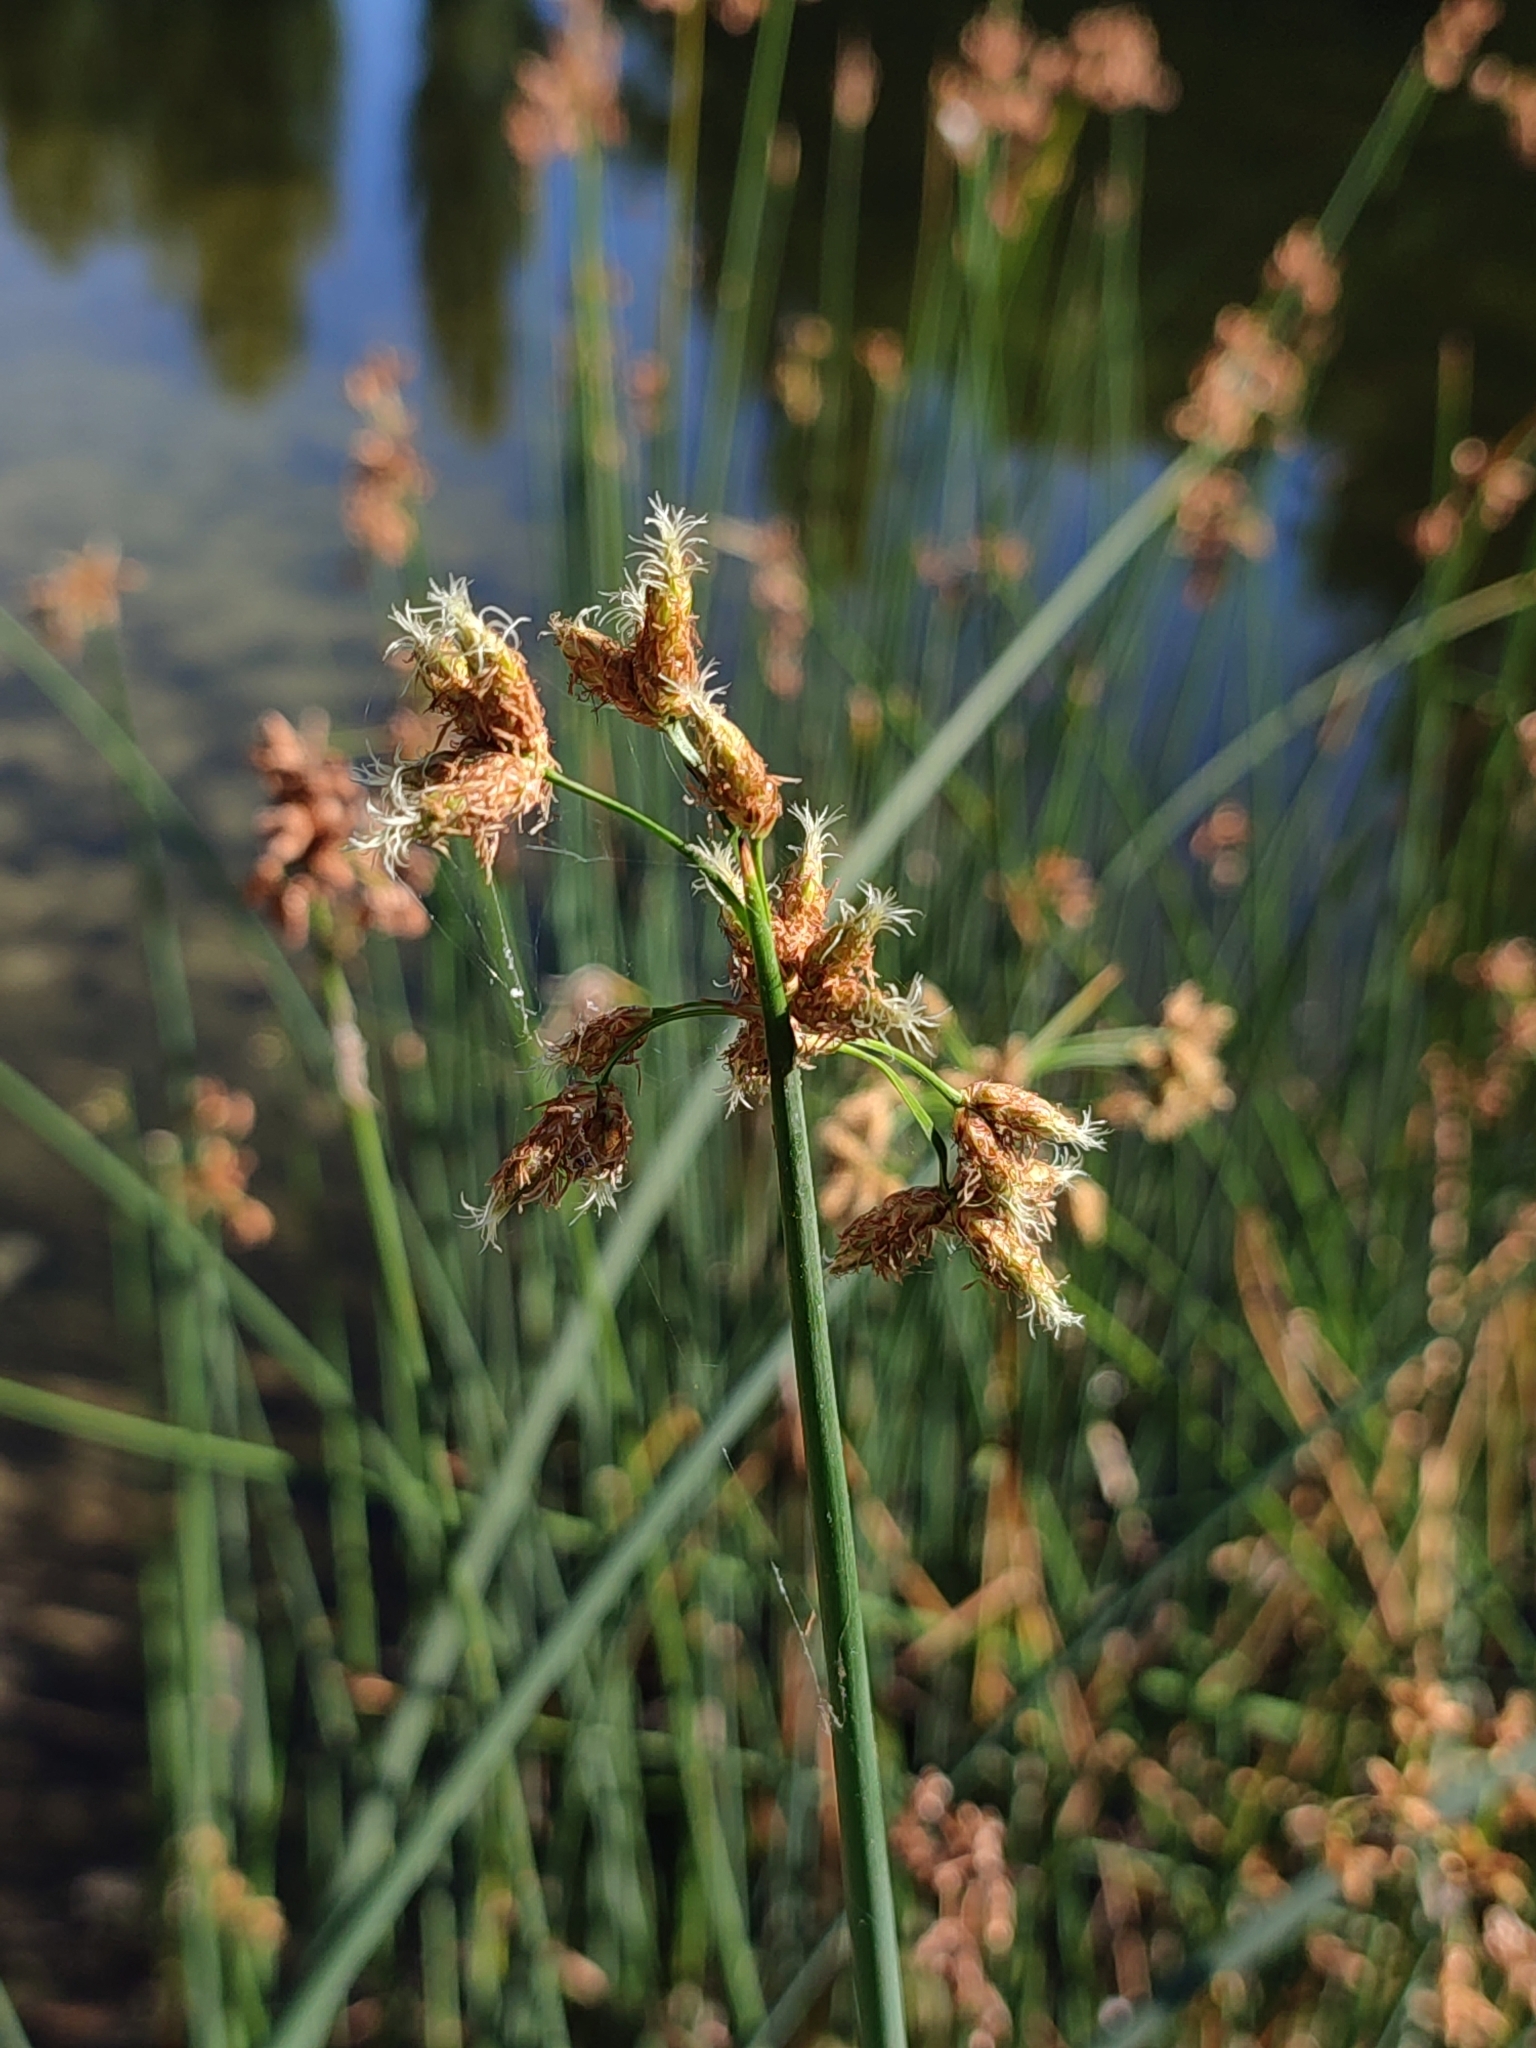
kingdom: Plantae
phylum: Tracheophyta
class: Liliopsida
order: Poales
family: Cyperaceae
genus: Schoenoplectus
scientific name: Schoenoplectus lacustris
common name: Common club-rush
